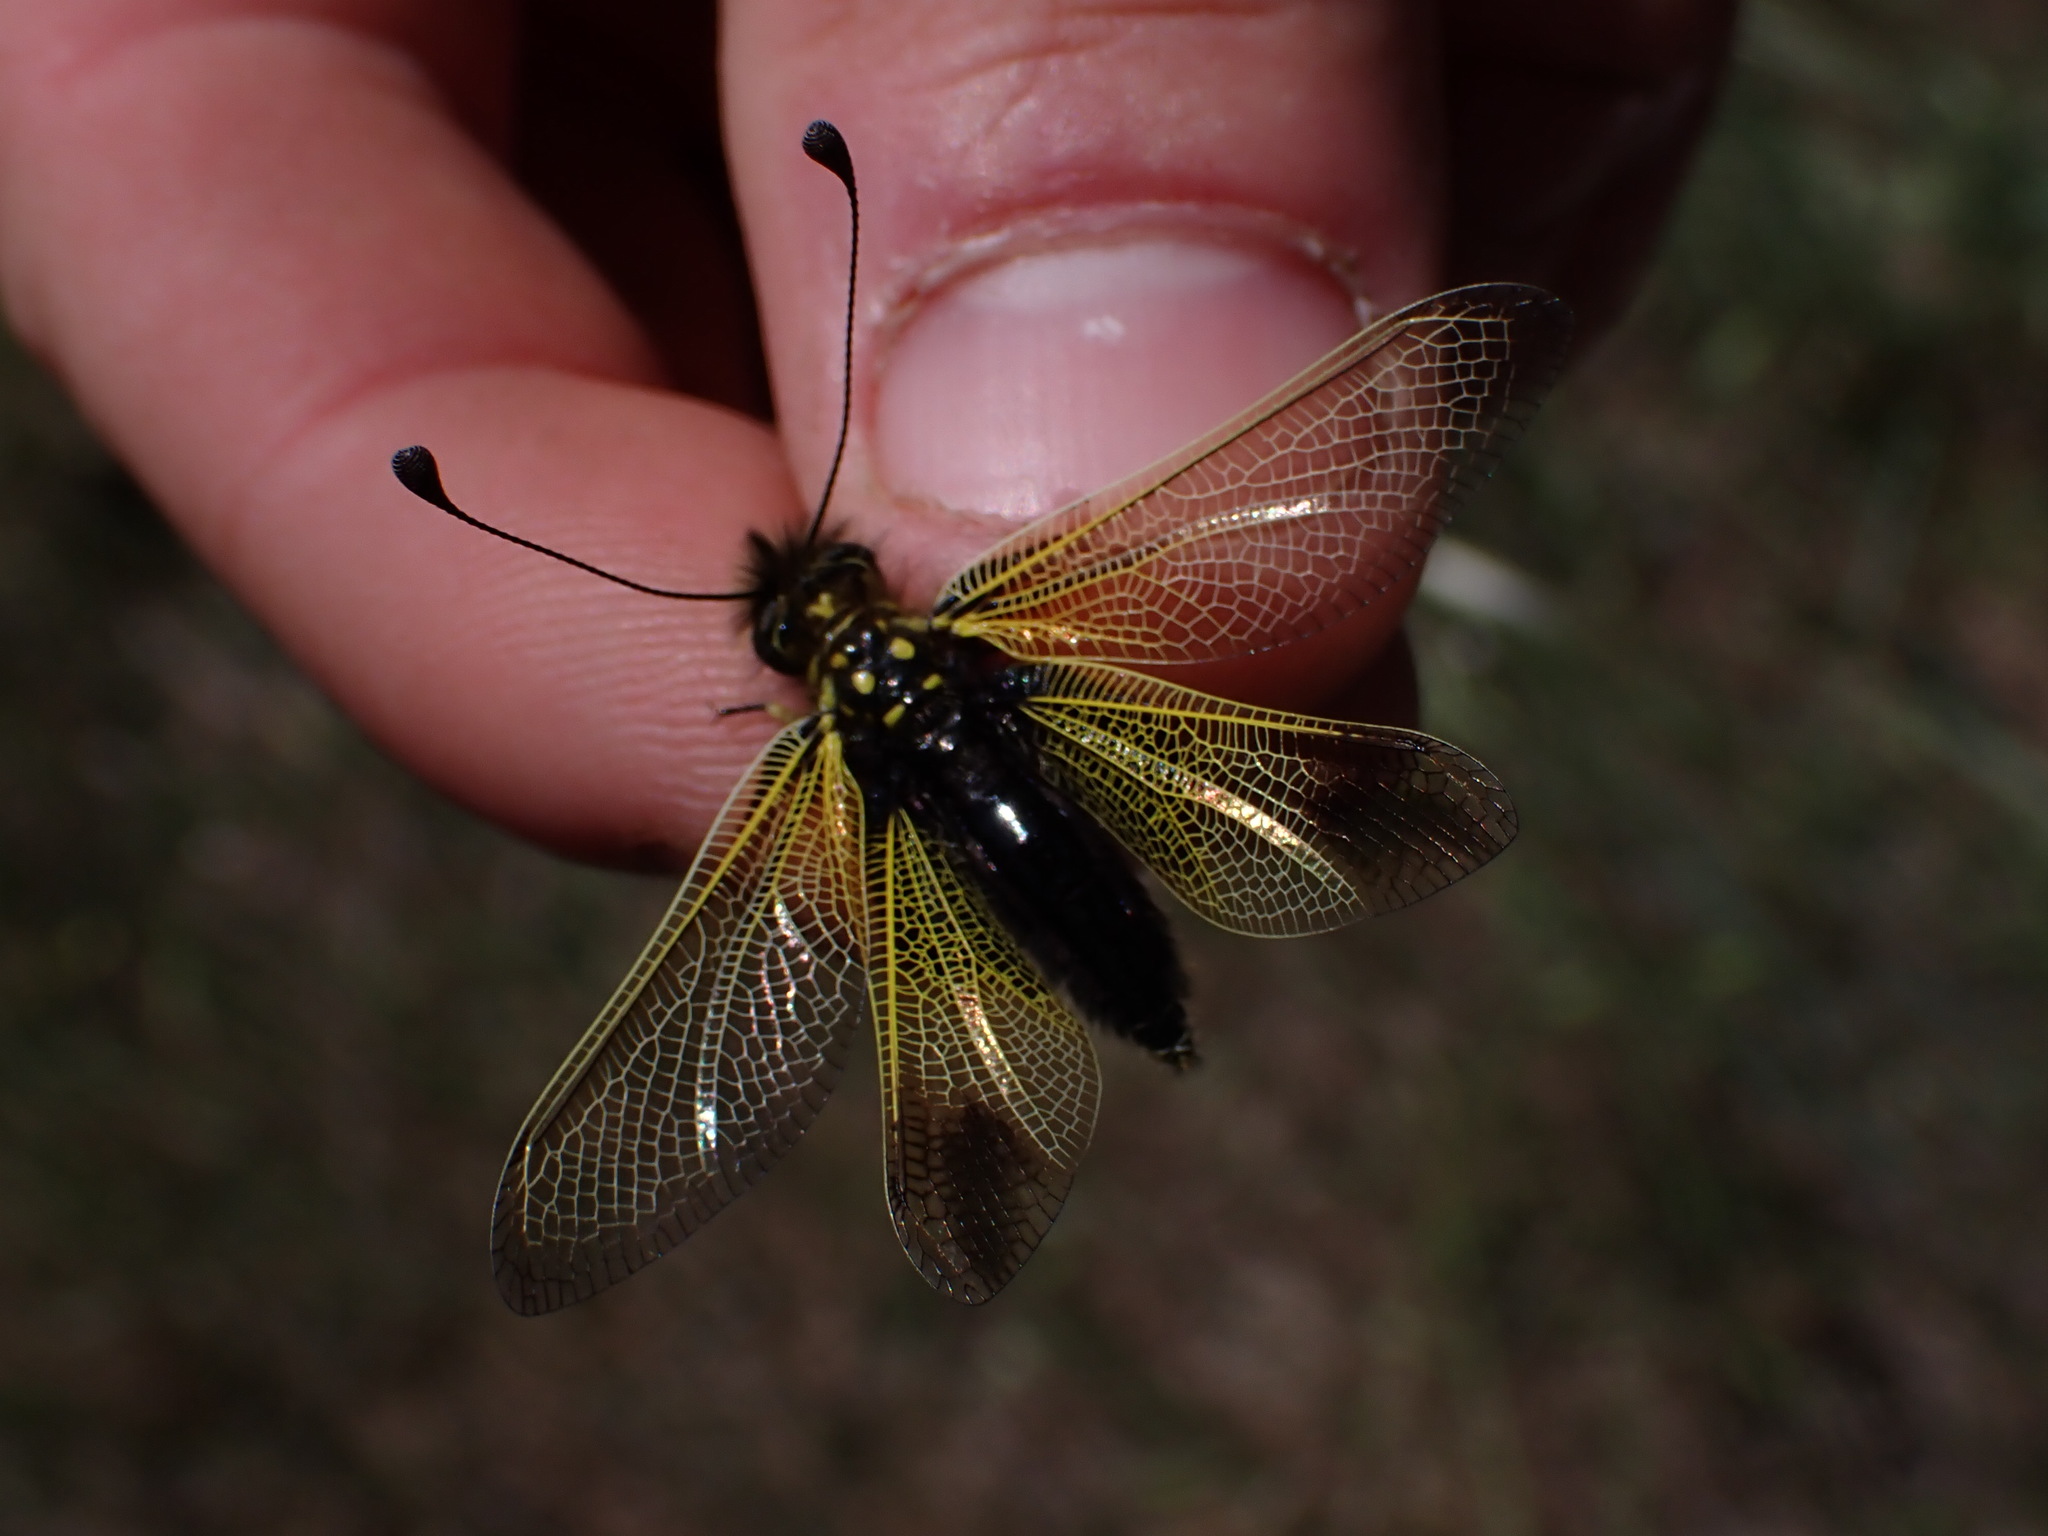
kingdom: Animalia
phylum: Arthropoda
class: Insecta
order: Neuroptera
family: Ascalaphidae
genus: Libelloides
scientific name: Libelloides ictericus
